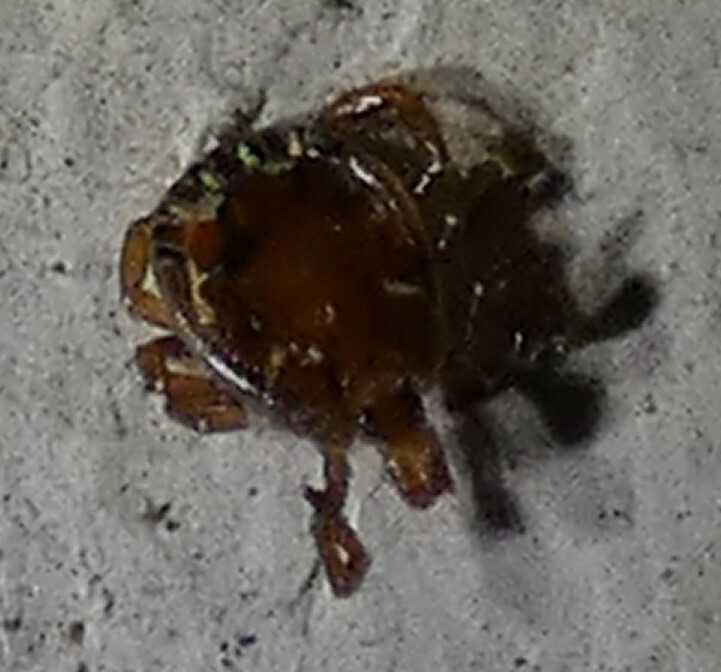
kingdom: Animalia
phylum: Arthropoda
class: Arachnida
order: Ixodida
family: Ixodidae
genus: Amblyomma
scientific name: Amblyomma americanum
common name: Lone star tick
